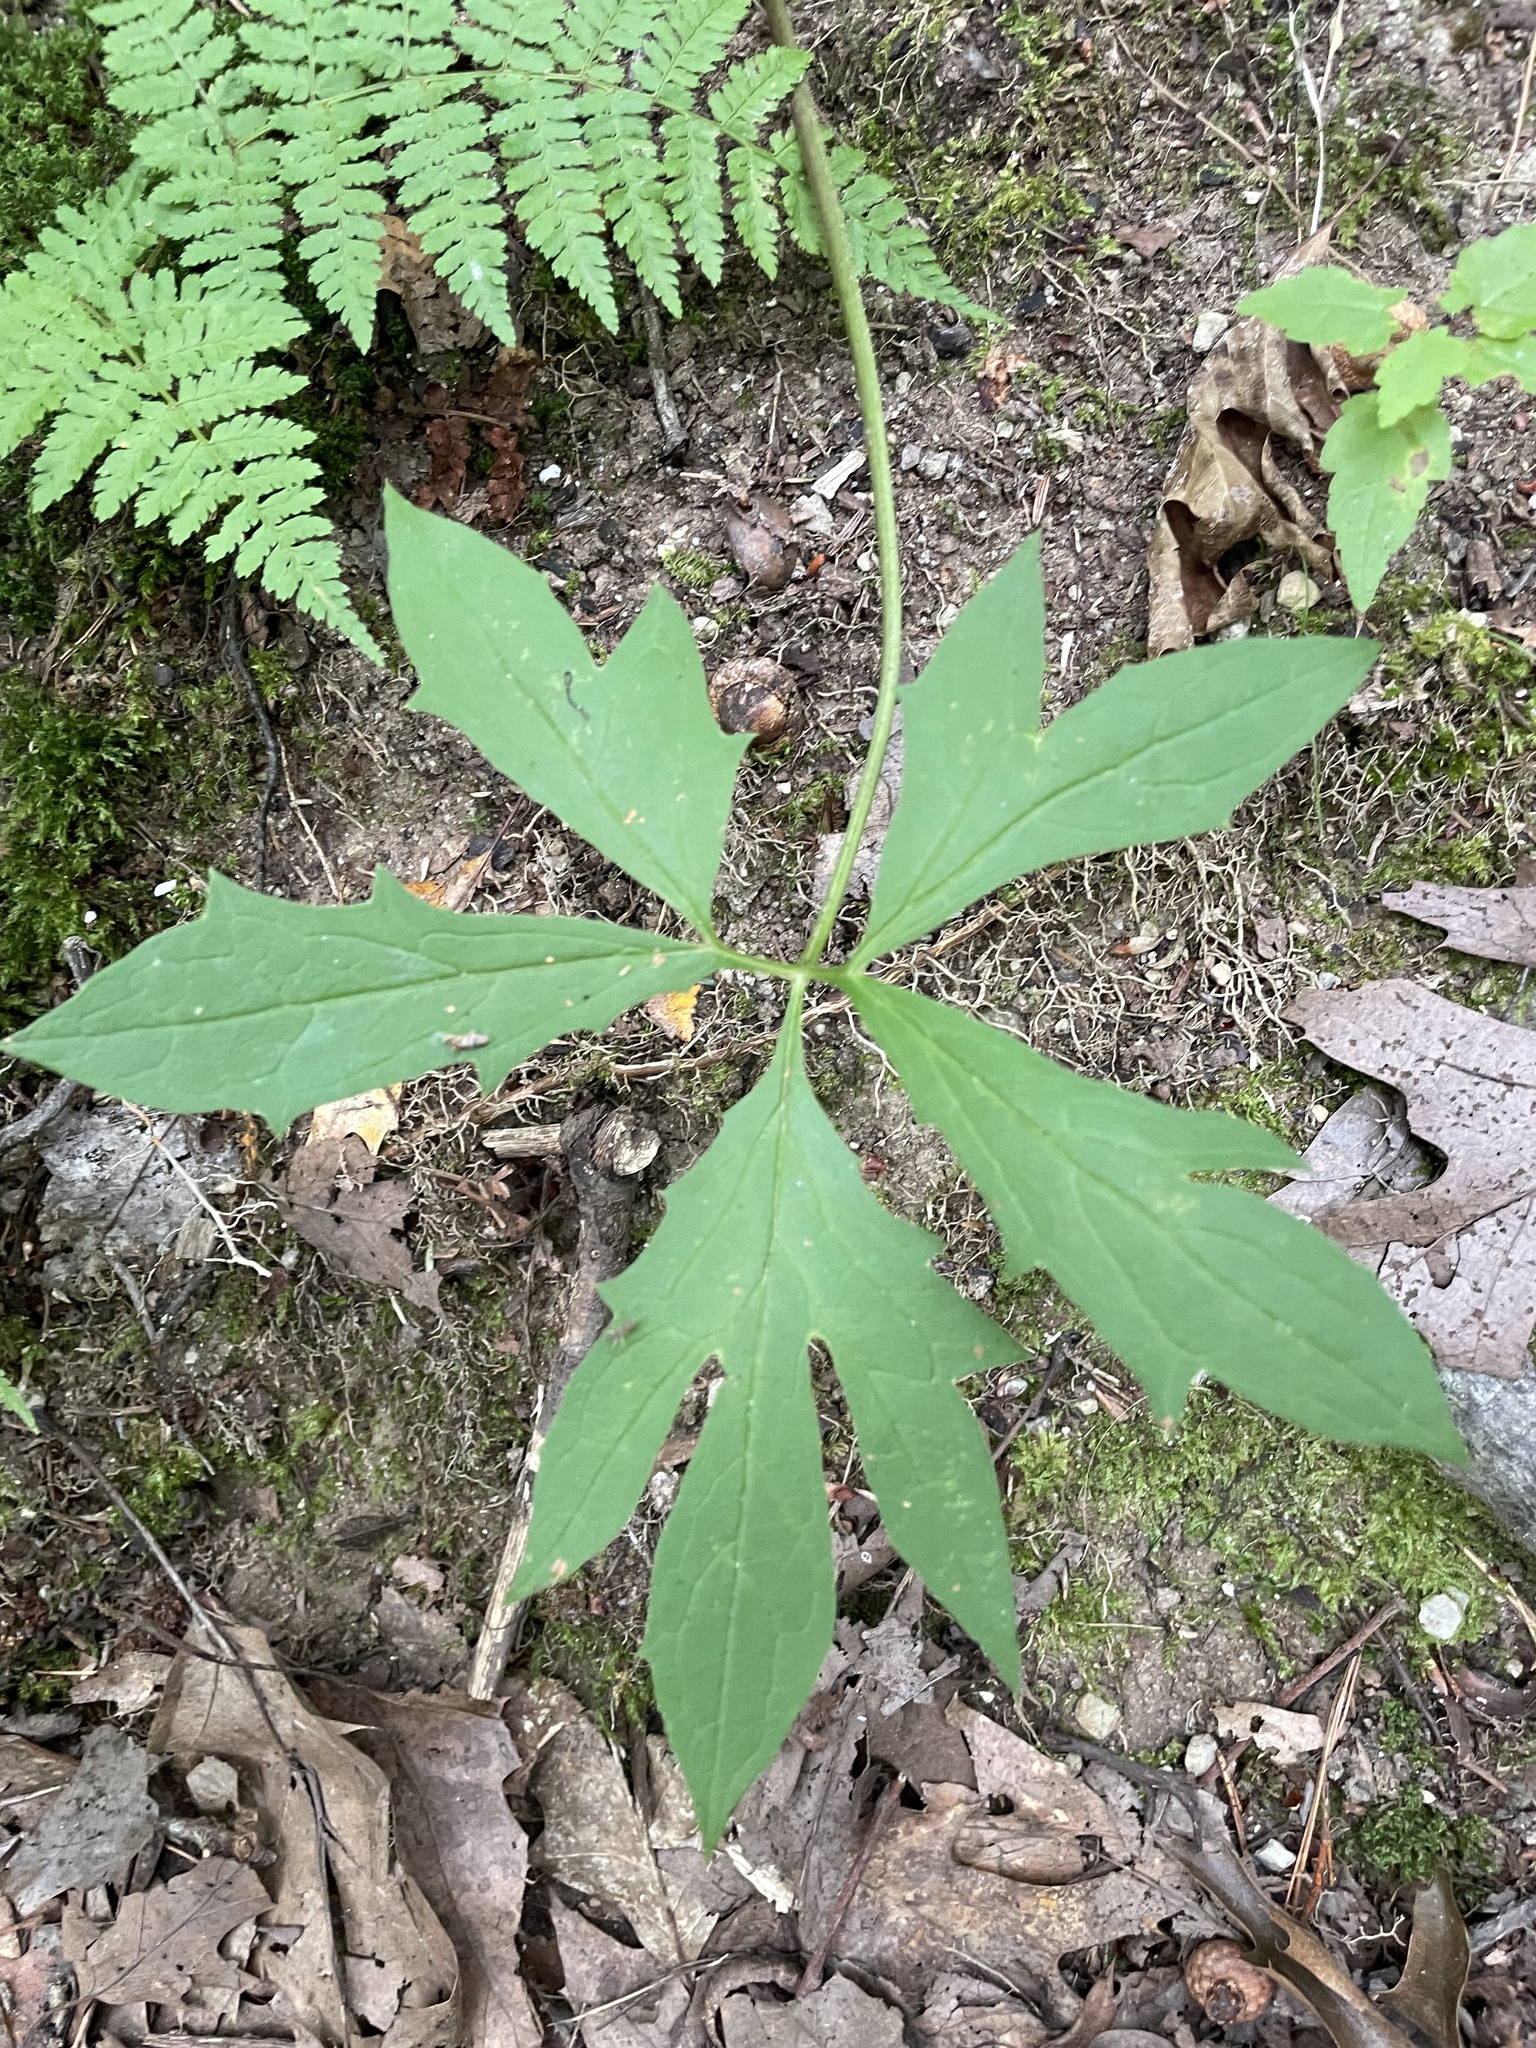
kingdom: Plantae
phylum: Tracheophyta
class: Magnoliopsida
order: Asterales
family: Asteraceae
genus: Nabalus
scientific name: Nabalus trifoliolatus
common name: Gall-of-the-earth
